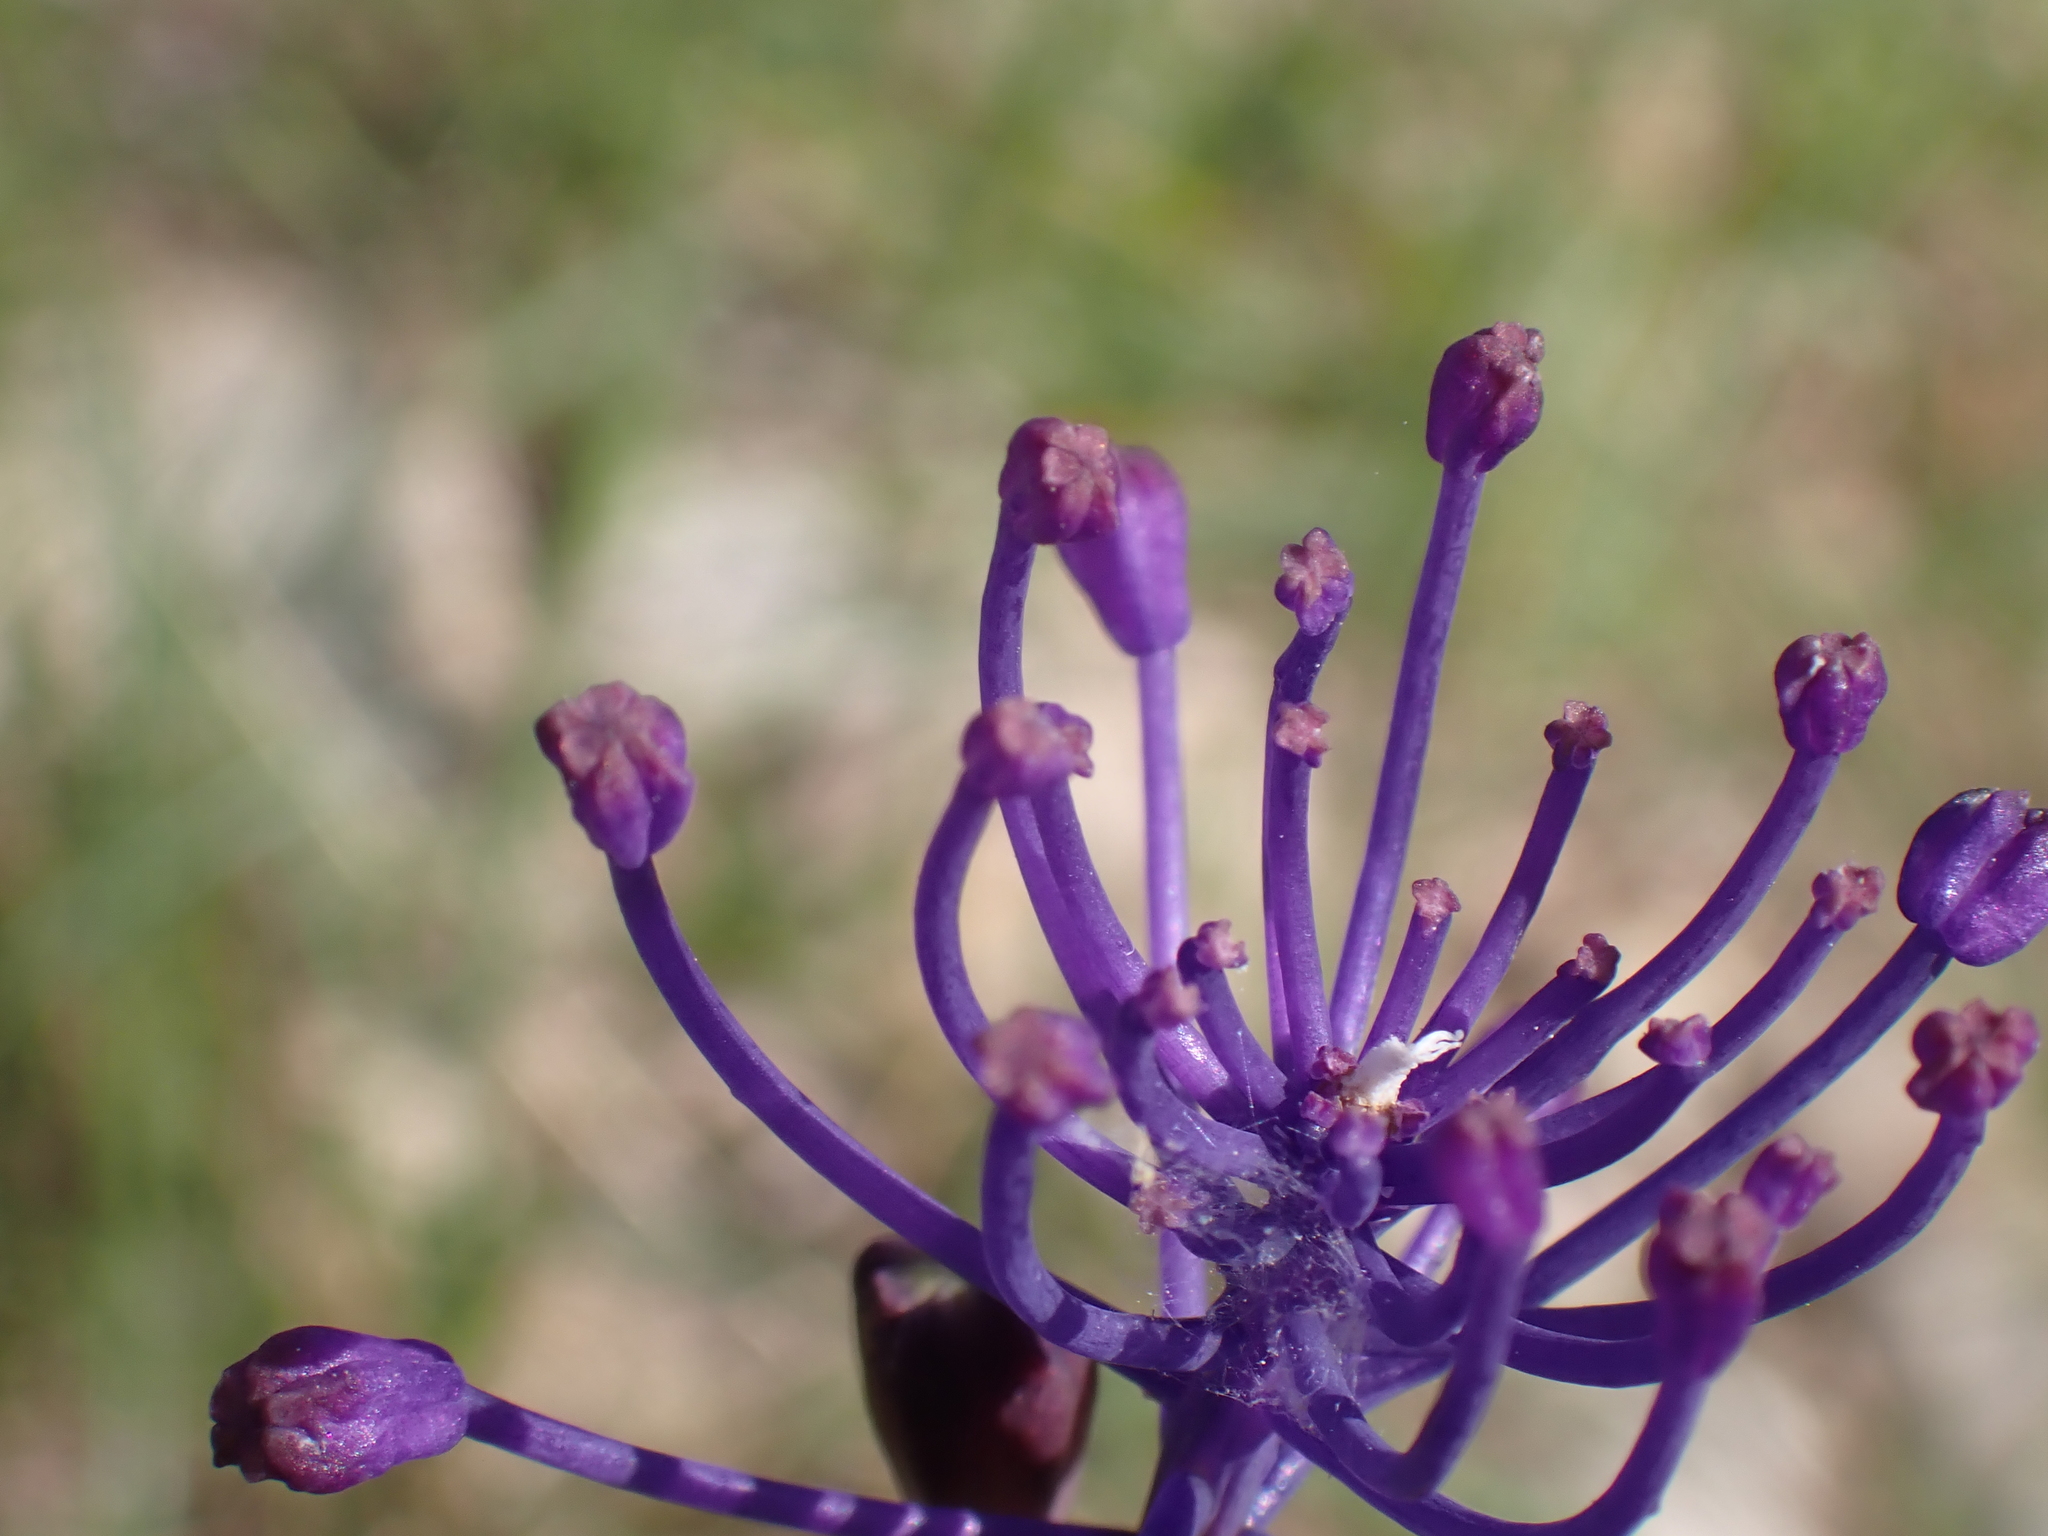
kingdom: Plantae
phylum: Tracheophyta
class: Liliopsida
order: Asparagales
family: Asparagaceae
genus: Muscari
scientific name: Muscari comosum
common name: Tassel hyacinth
